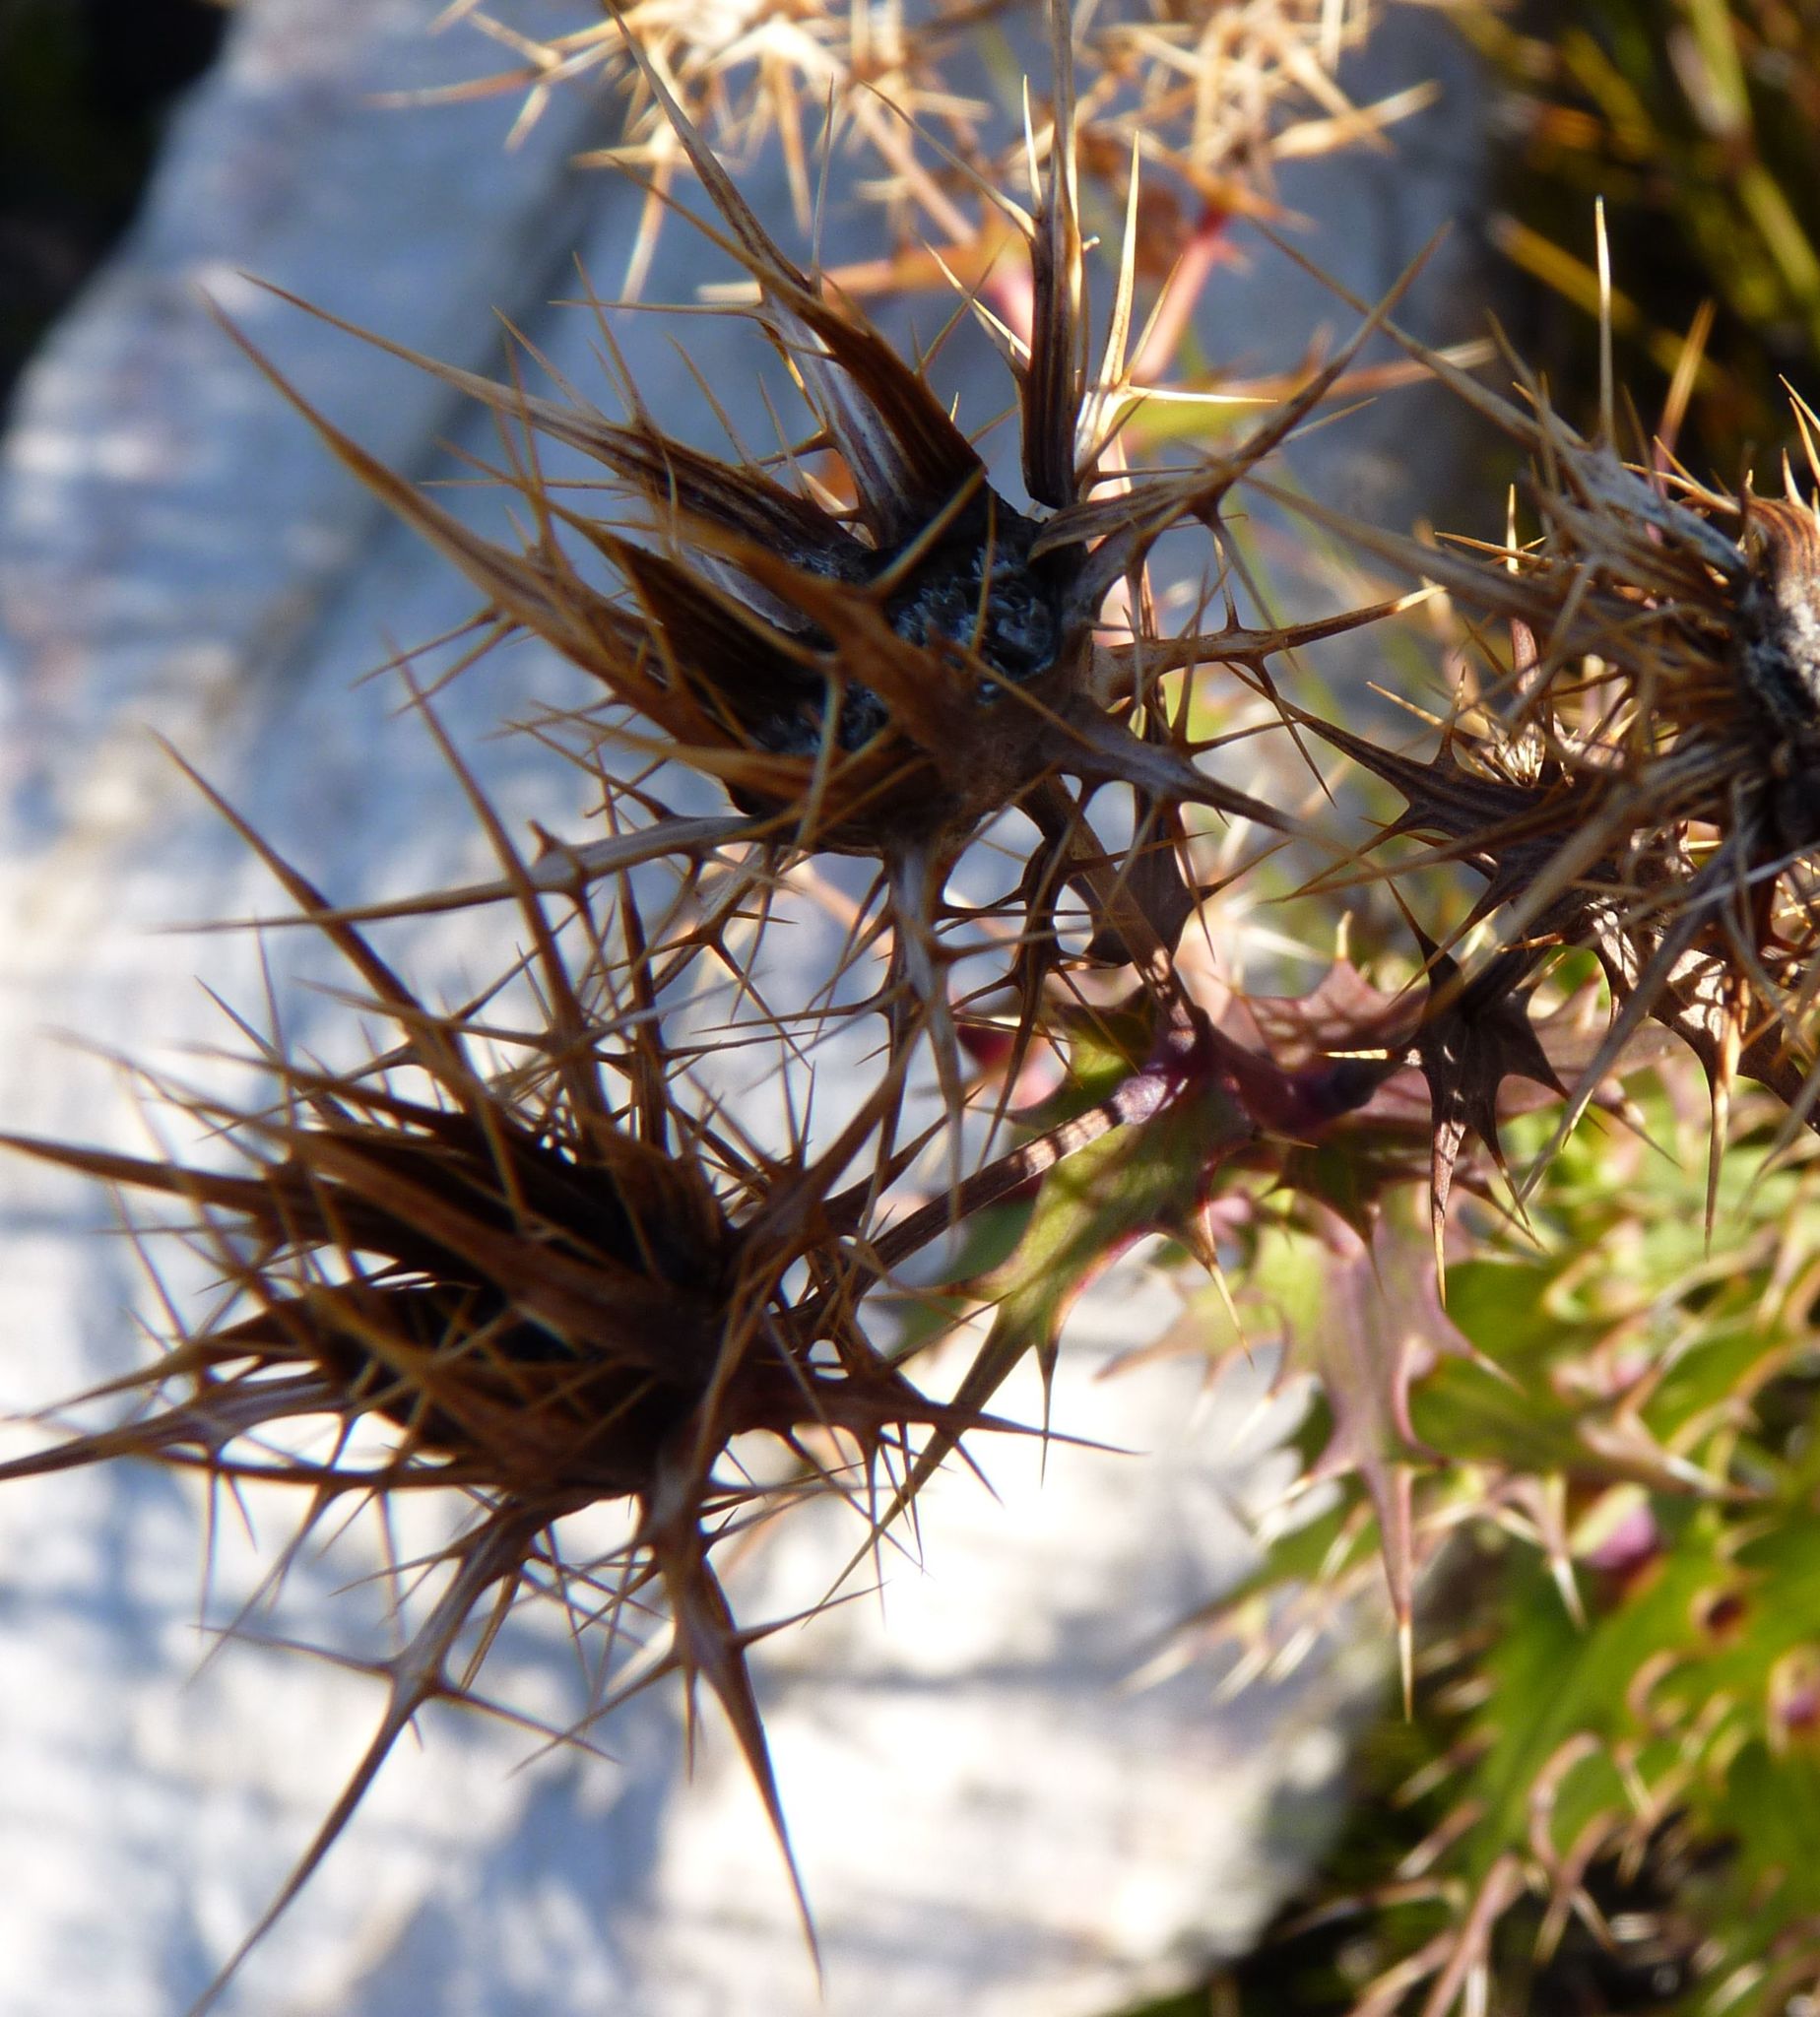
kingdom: Plantae
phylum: Tracheophyta
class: Magnoliopsida
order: Asterales
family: Asteraceae
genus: Berkheya
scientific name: Berkheya cruciata
